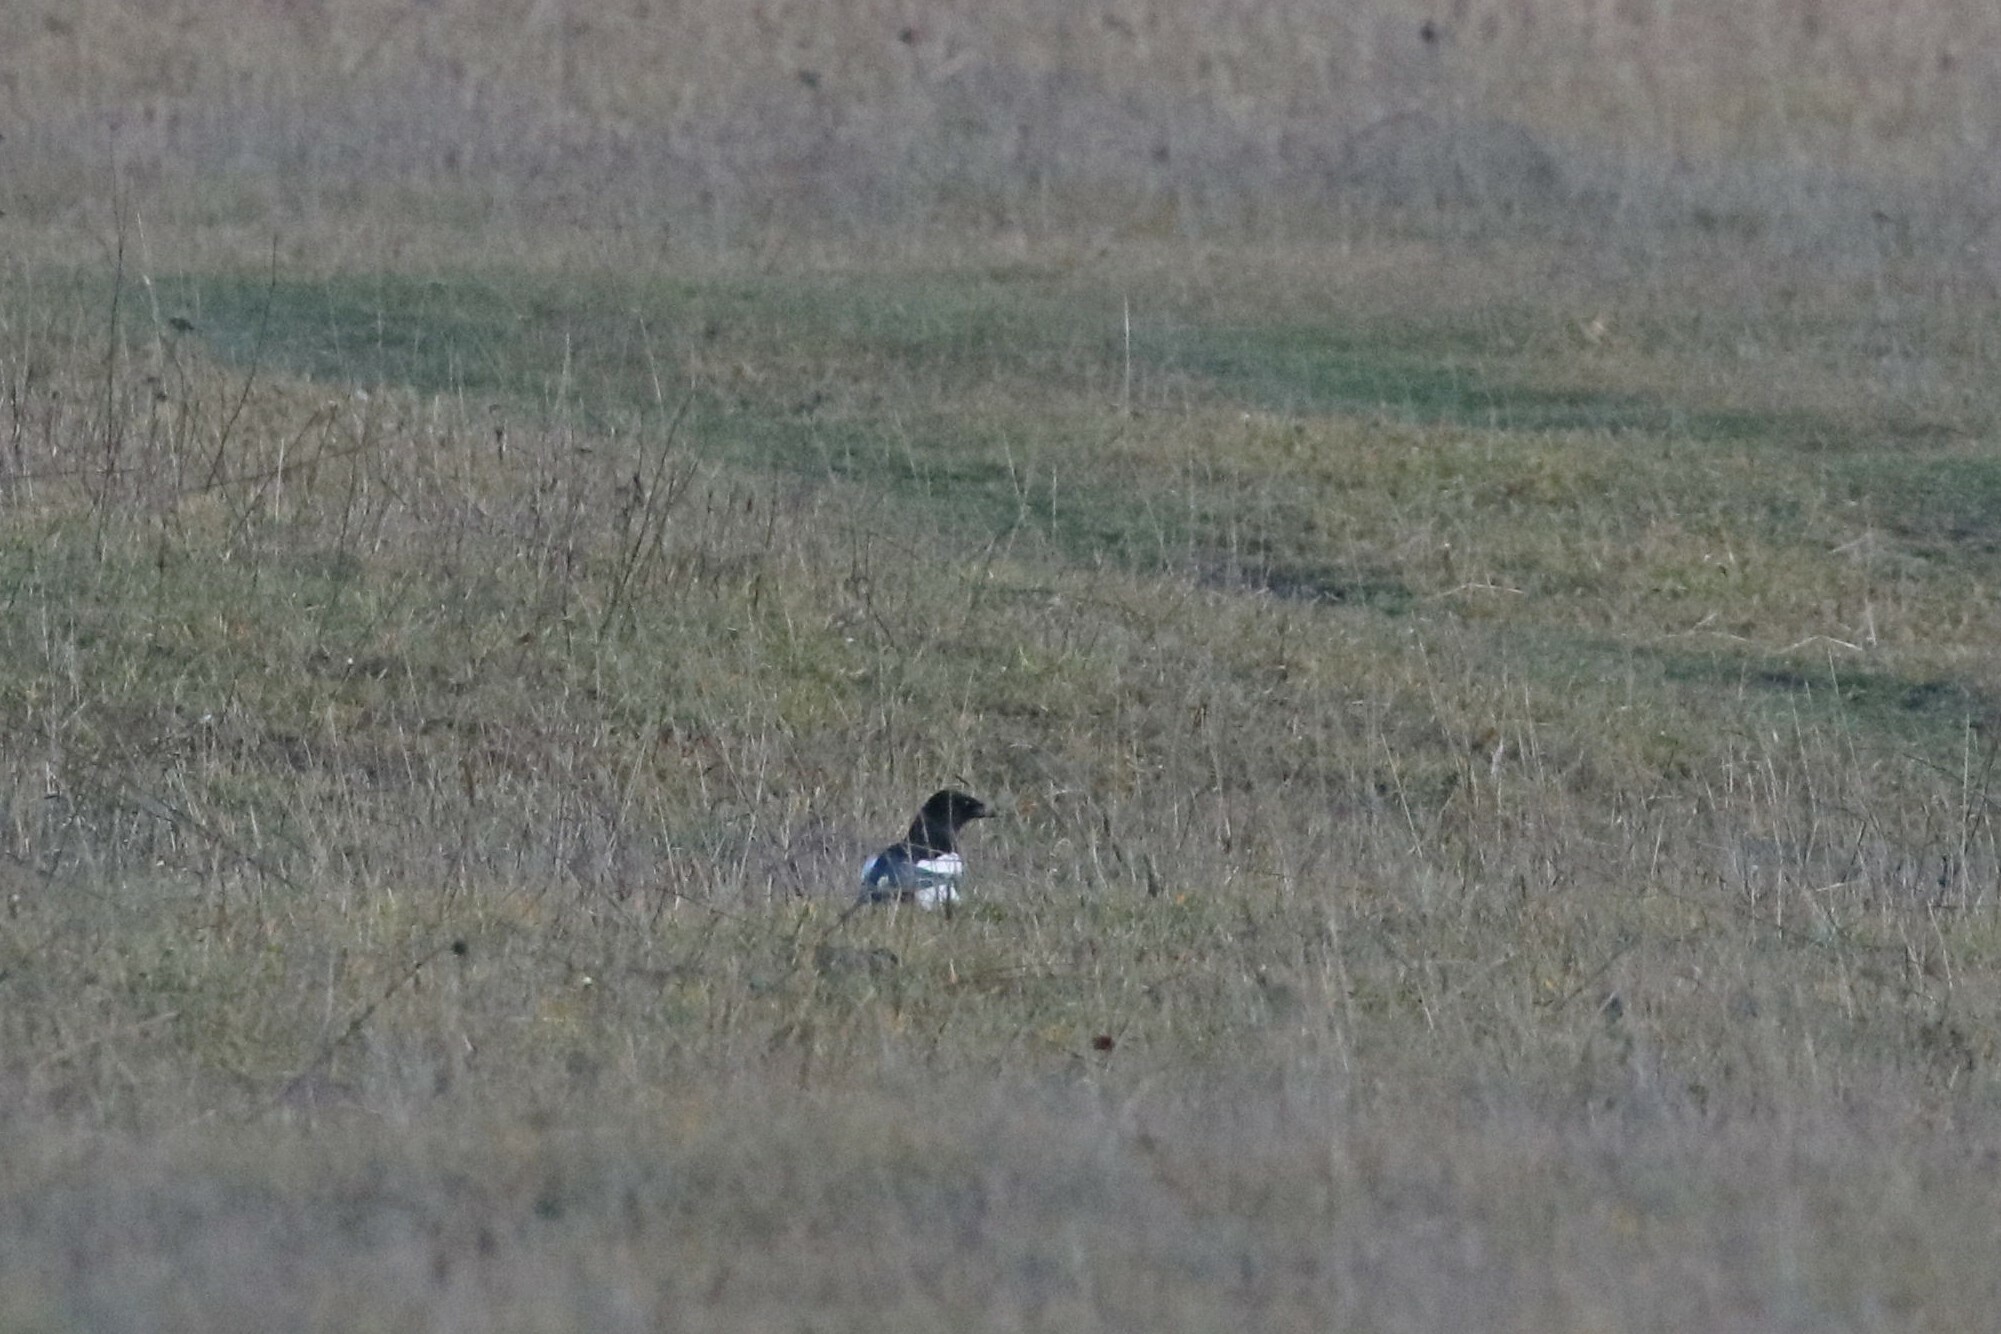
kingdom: Animalia
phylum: Chordata
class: Aves
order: Passeriformes
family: Corvidae
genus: Pica
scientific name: Pica pica
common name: Eurasian magpie
